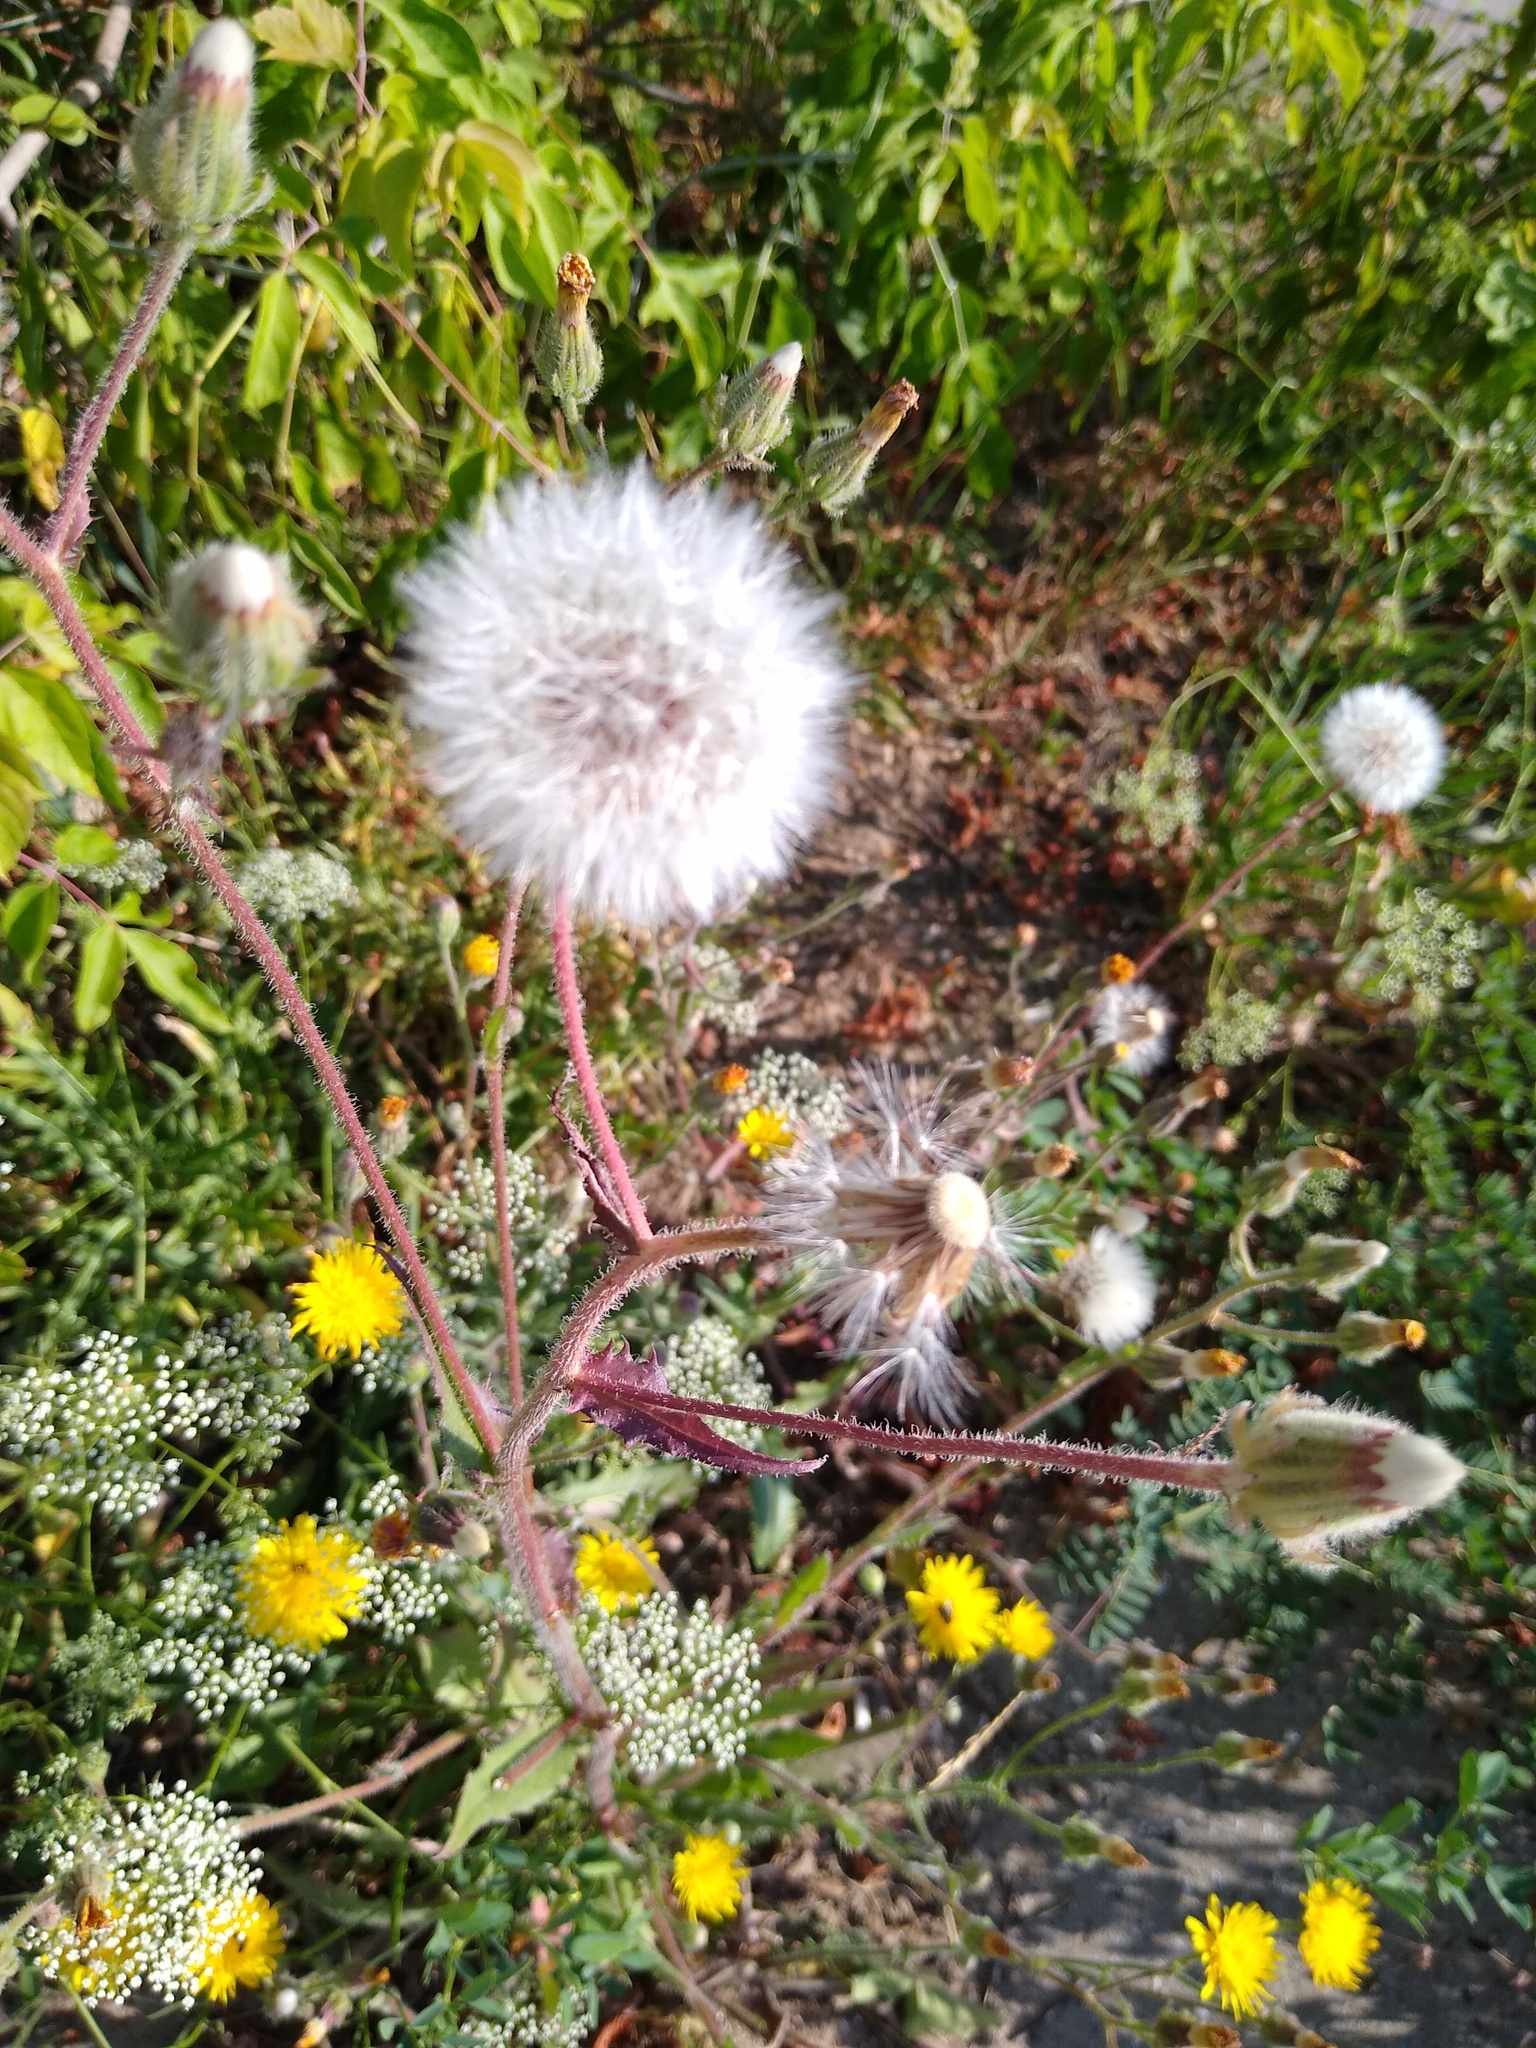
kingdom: Plantae
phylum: Tracheophyta
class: Magnoliopsida
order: Asterales
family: Asteraceae
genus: Crepis
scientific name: Crepis foetida
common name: Stinking hawk's-beard
